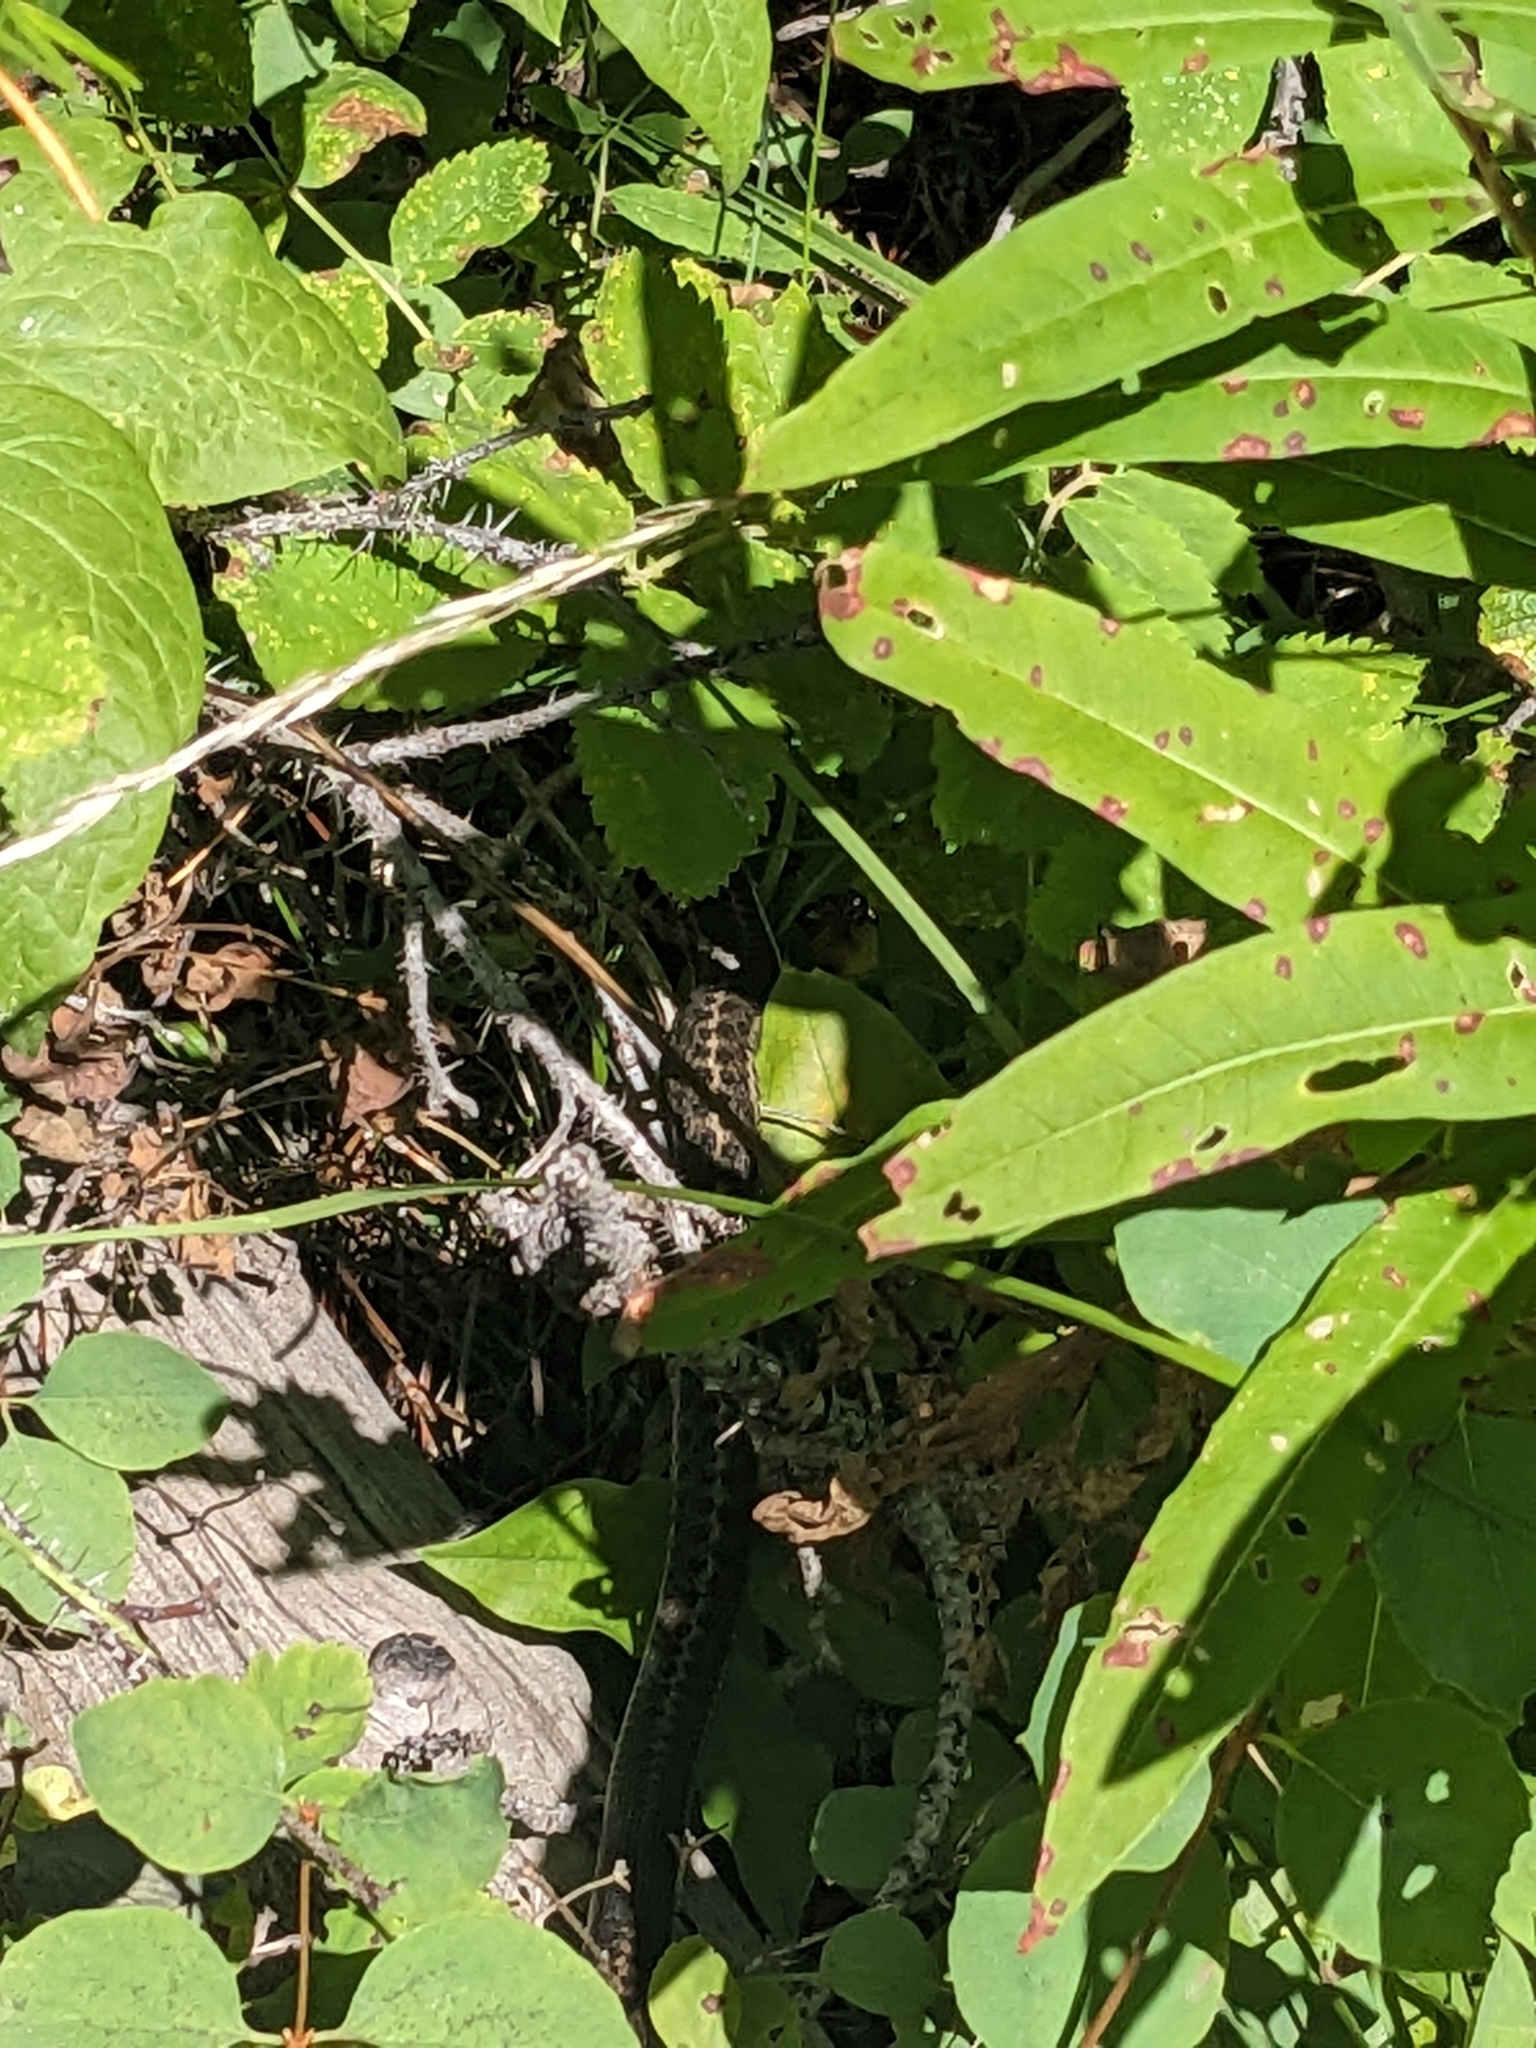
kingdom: Animalia
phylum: Chordata
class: Squamata
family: Colubridae
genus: Thamnophis
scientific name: Thamnophis elegans
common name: Western terrestrial garter snake
